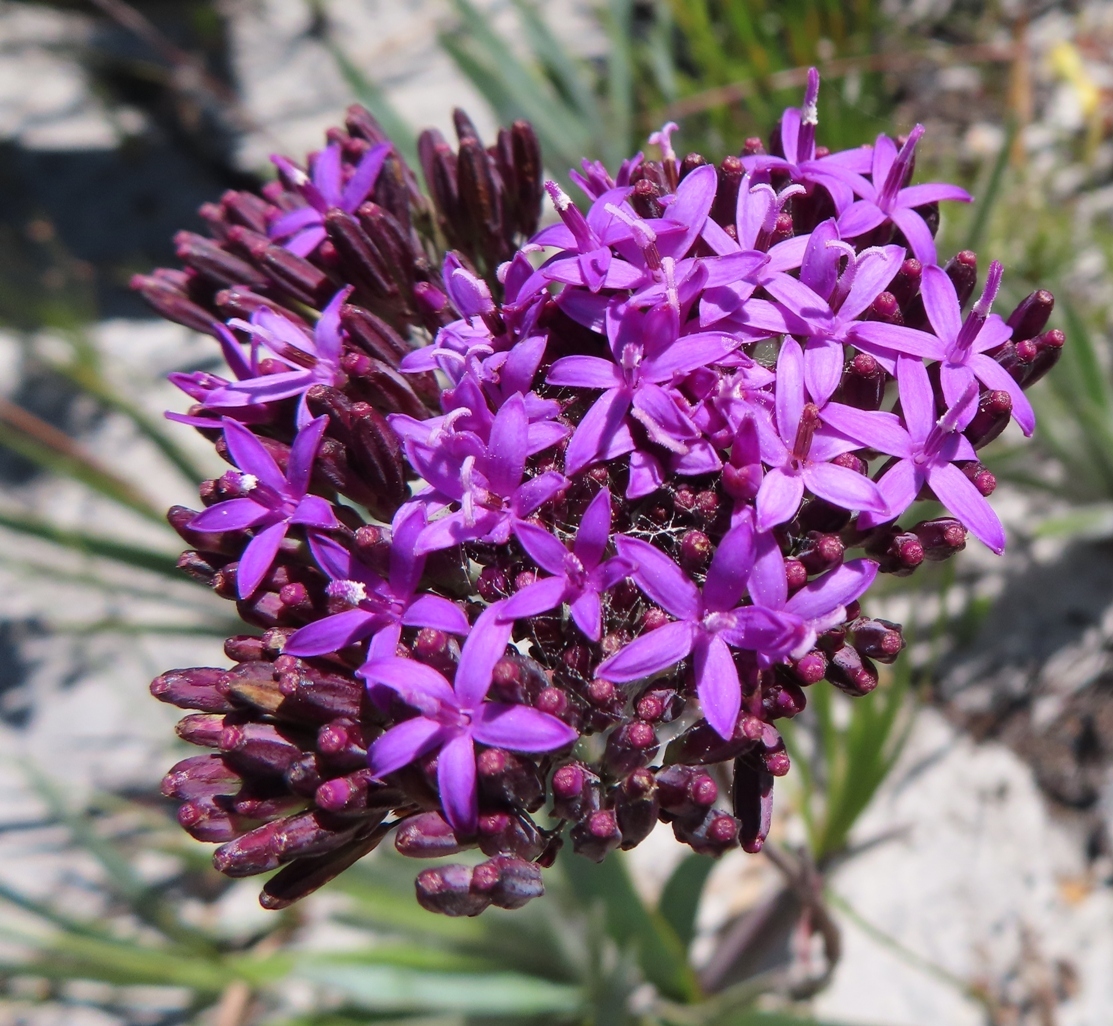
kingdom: Plantae
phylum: Tracheophyta
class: Magnoliopsida
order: Asterales
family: Asteraceae
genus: Corymbium
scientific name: Corymbium glabrum
